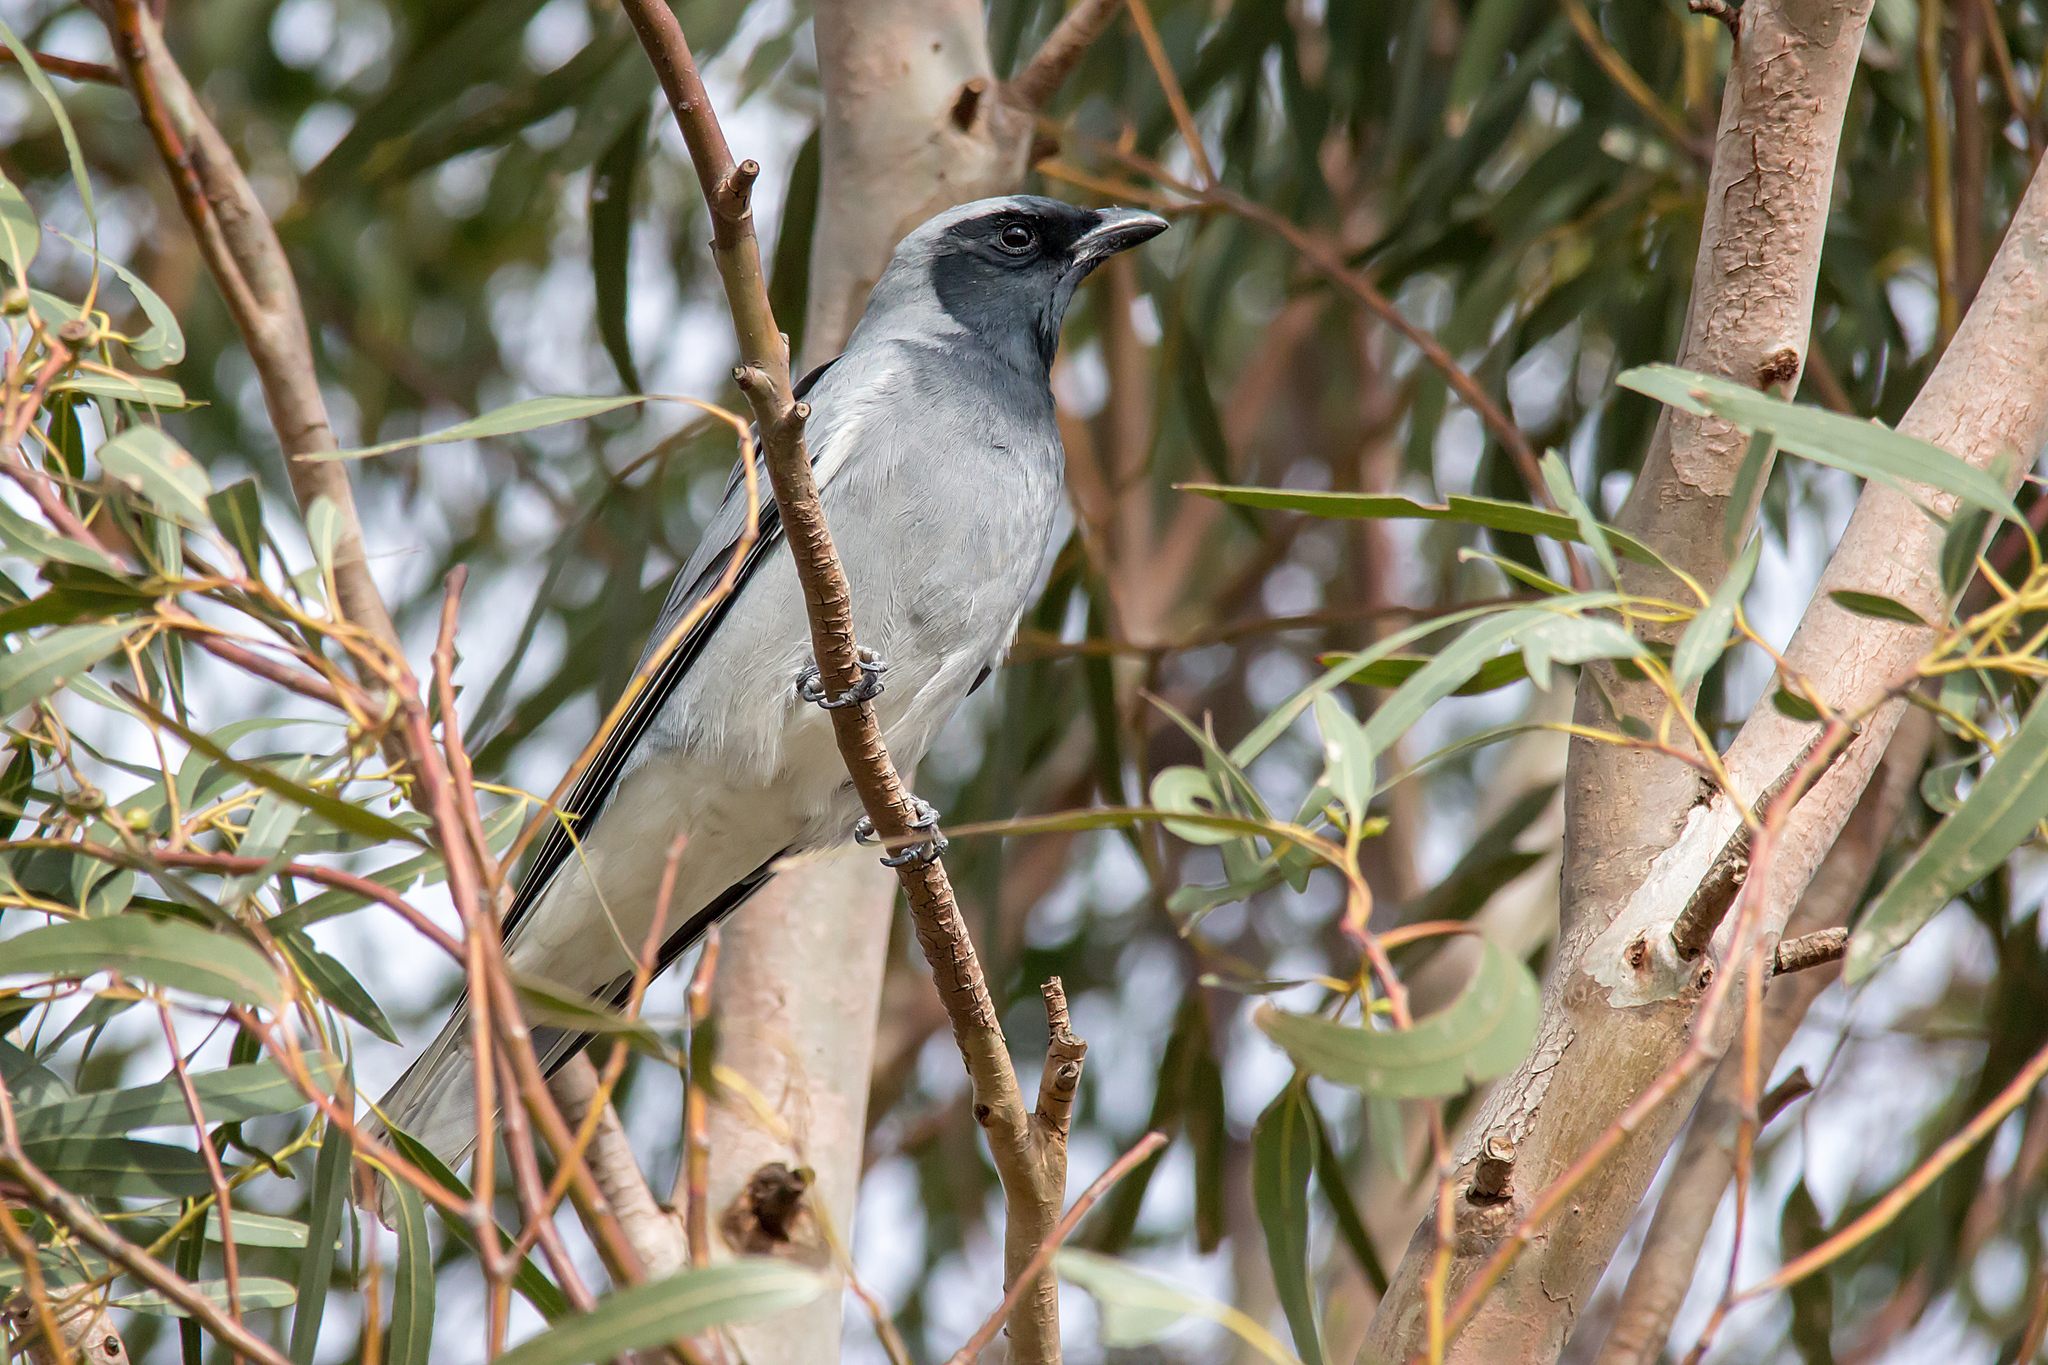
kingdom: Animalia
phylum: Chordata
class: Aves
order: Passeriformes
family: Campephagidae
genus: Coracina
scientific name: Coracina novaehollandiae
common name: Black-faced cuckooshrike
